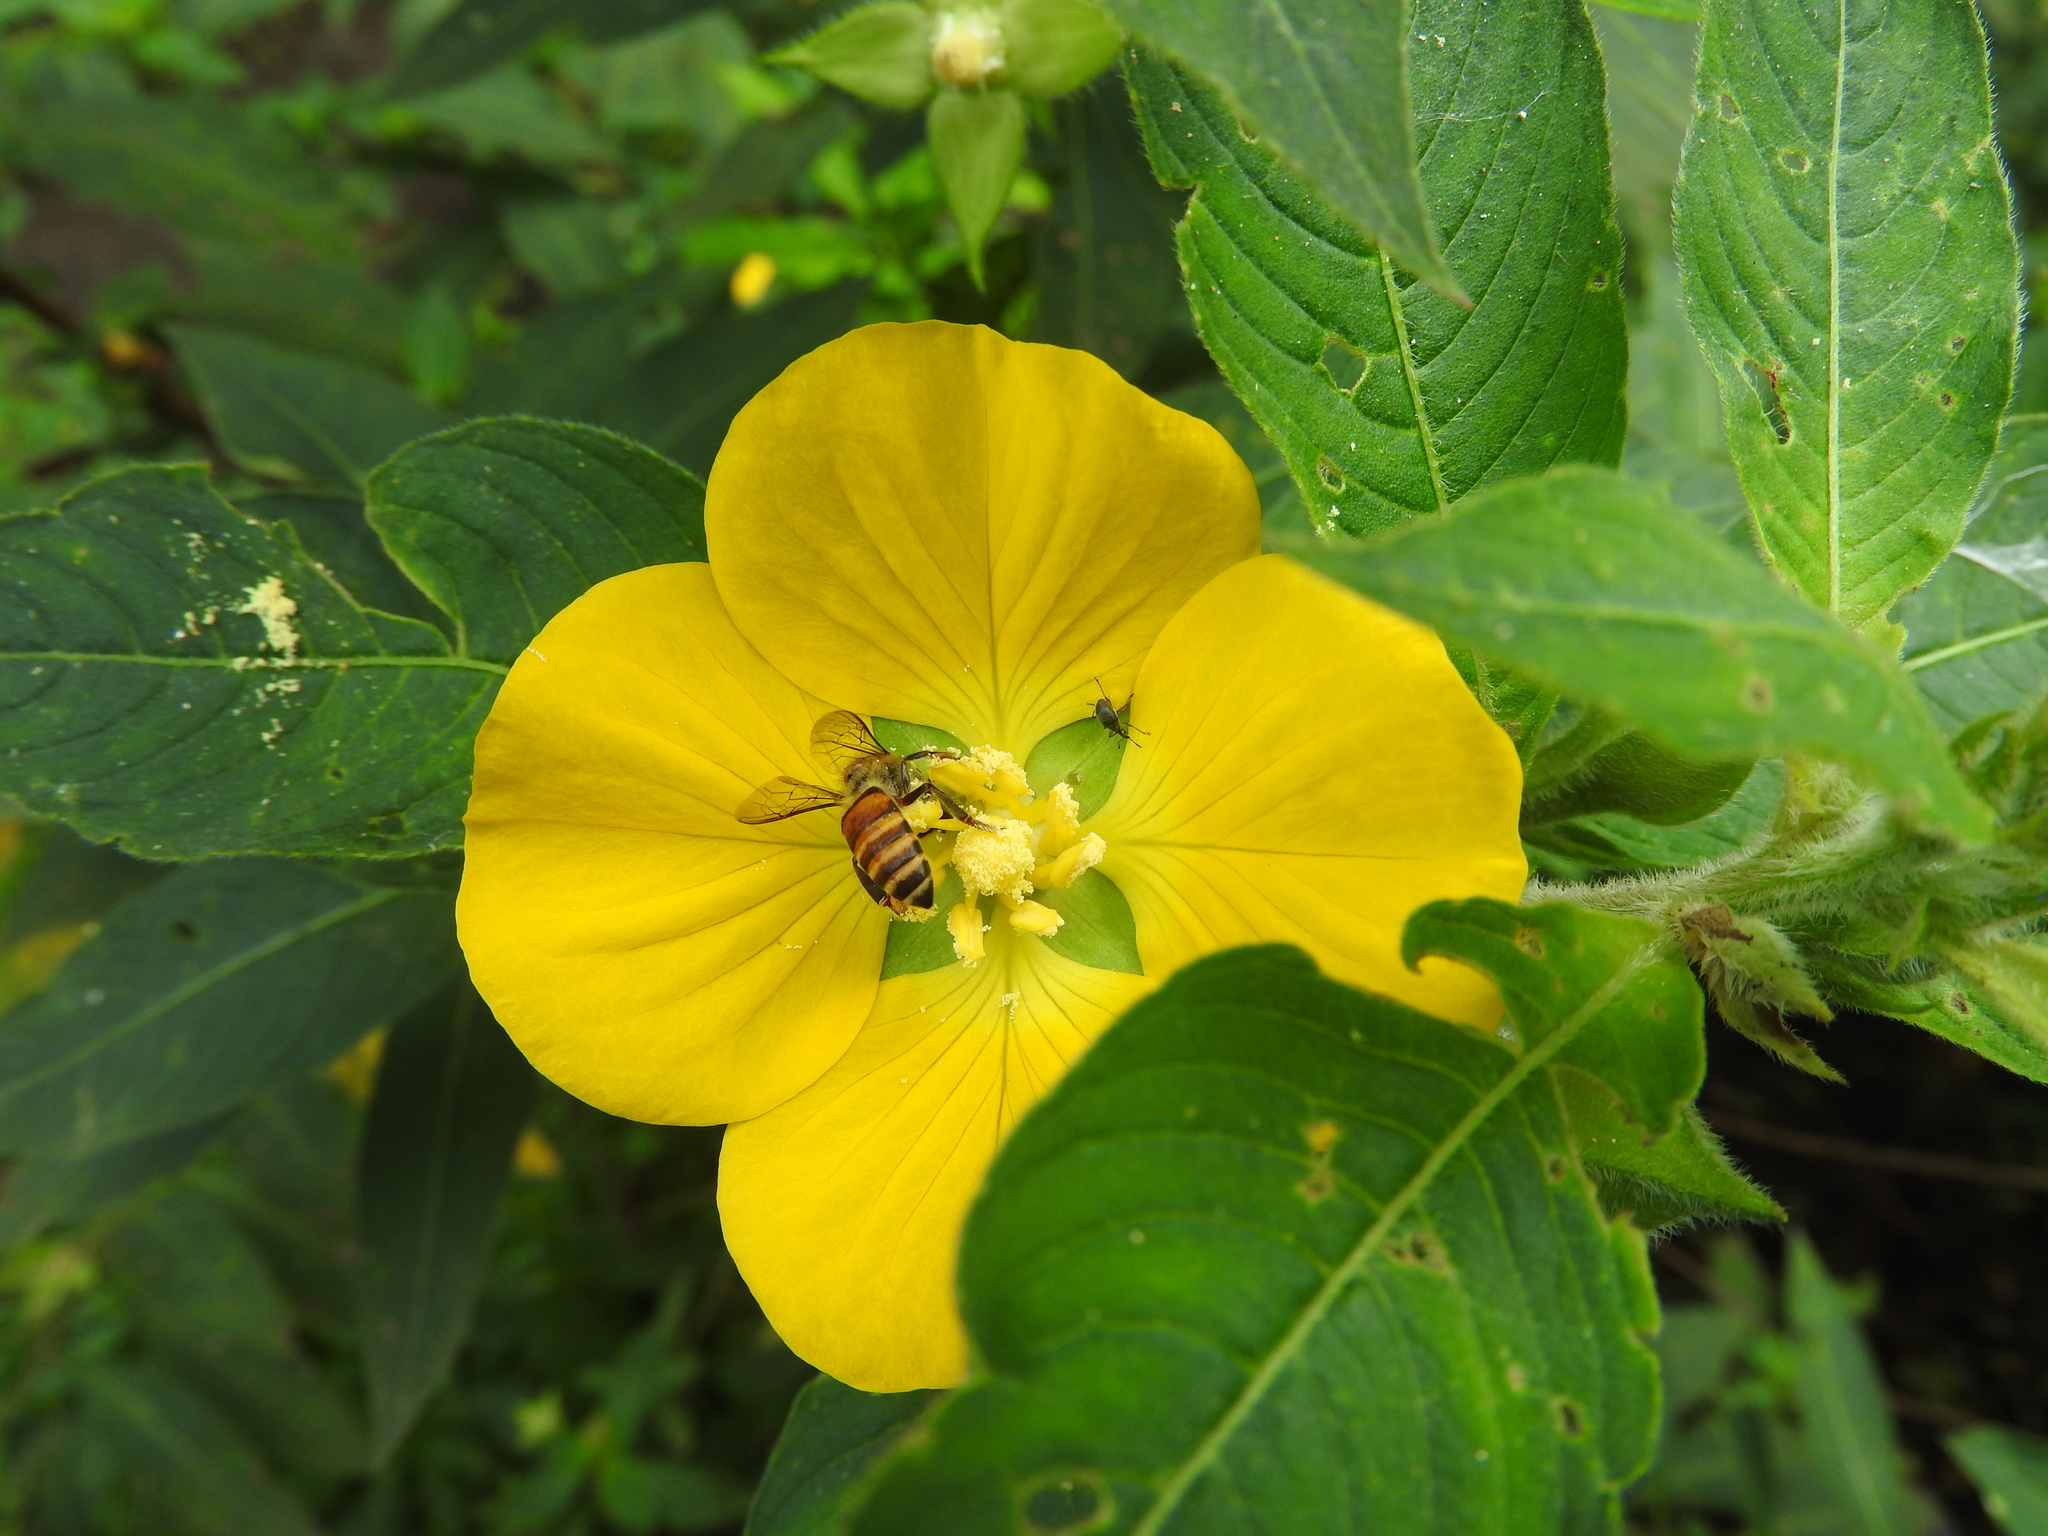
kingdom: Animalia
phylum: Arthropoda
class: Insecta
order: Hymenoptera
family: Apidae
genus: Apis
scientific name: Apis cerana
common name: Honey bee
